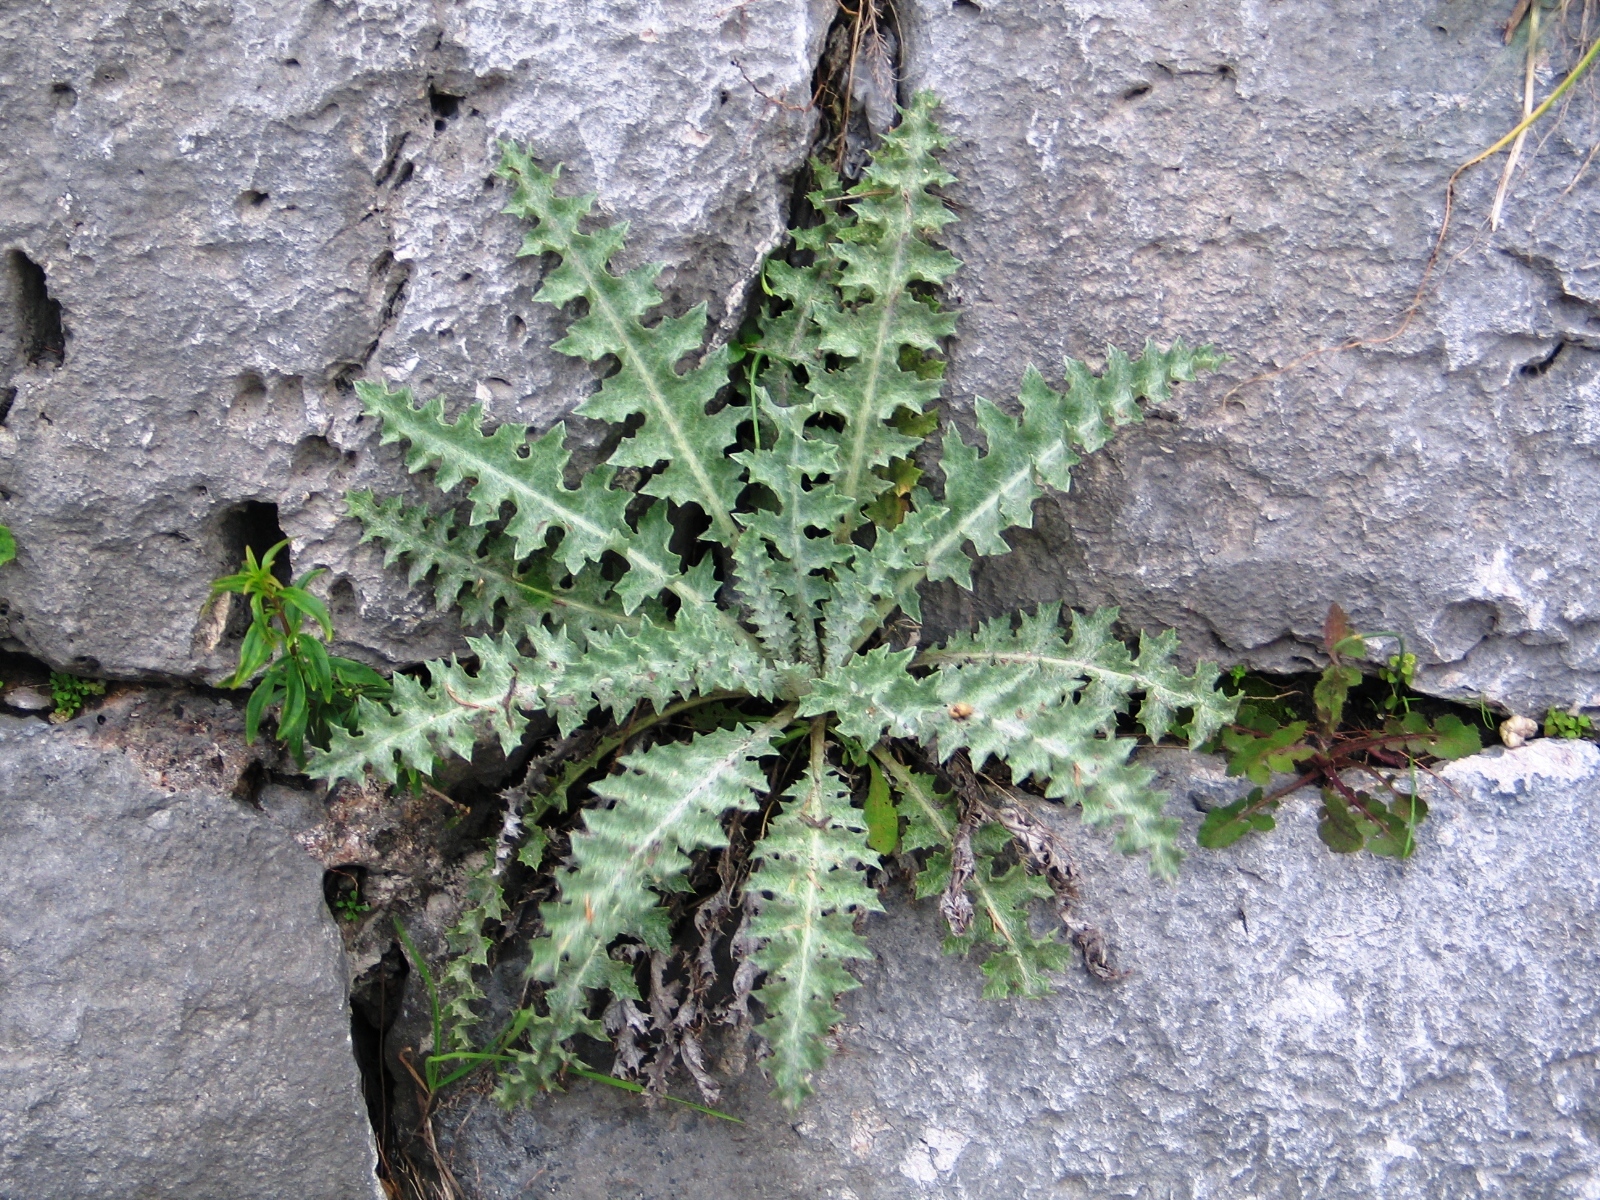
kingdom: Plantae
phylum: Tracheophyta
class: Magnoliopsida
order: Asterales
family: Asteraceae
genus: Onopordum
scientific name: Onopordum illyricum
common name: Illyrian thistle
